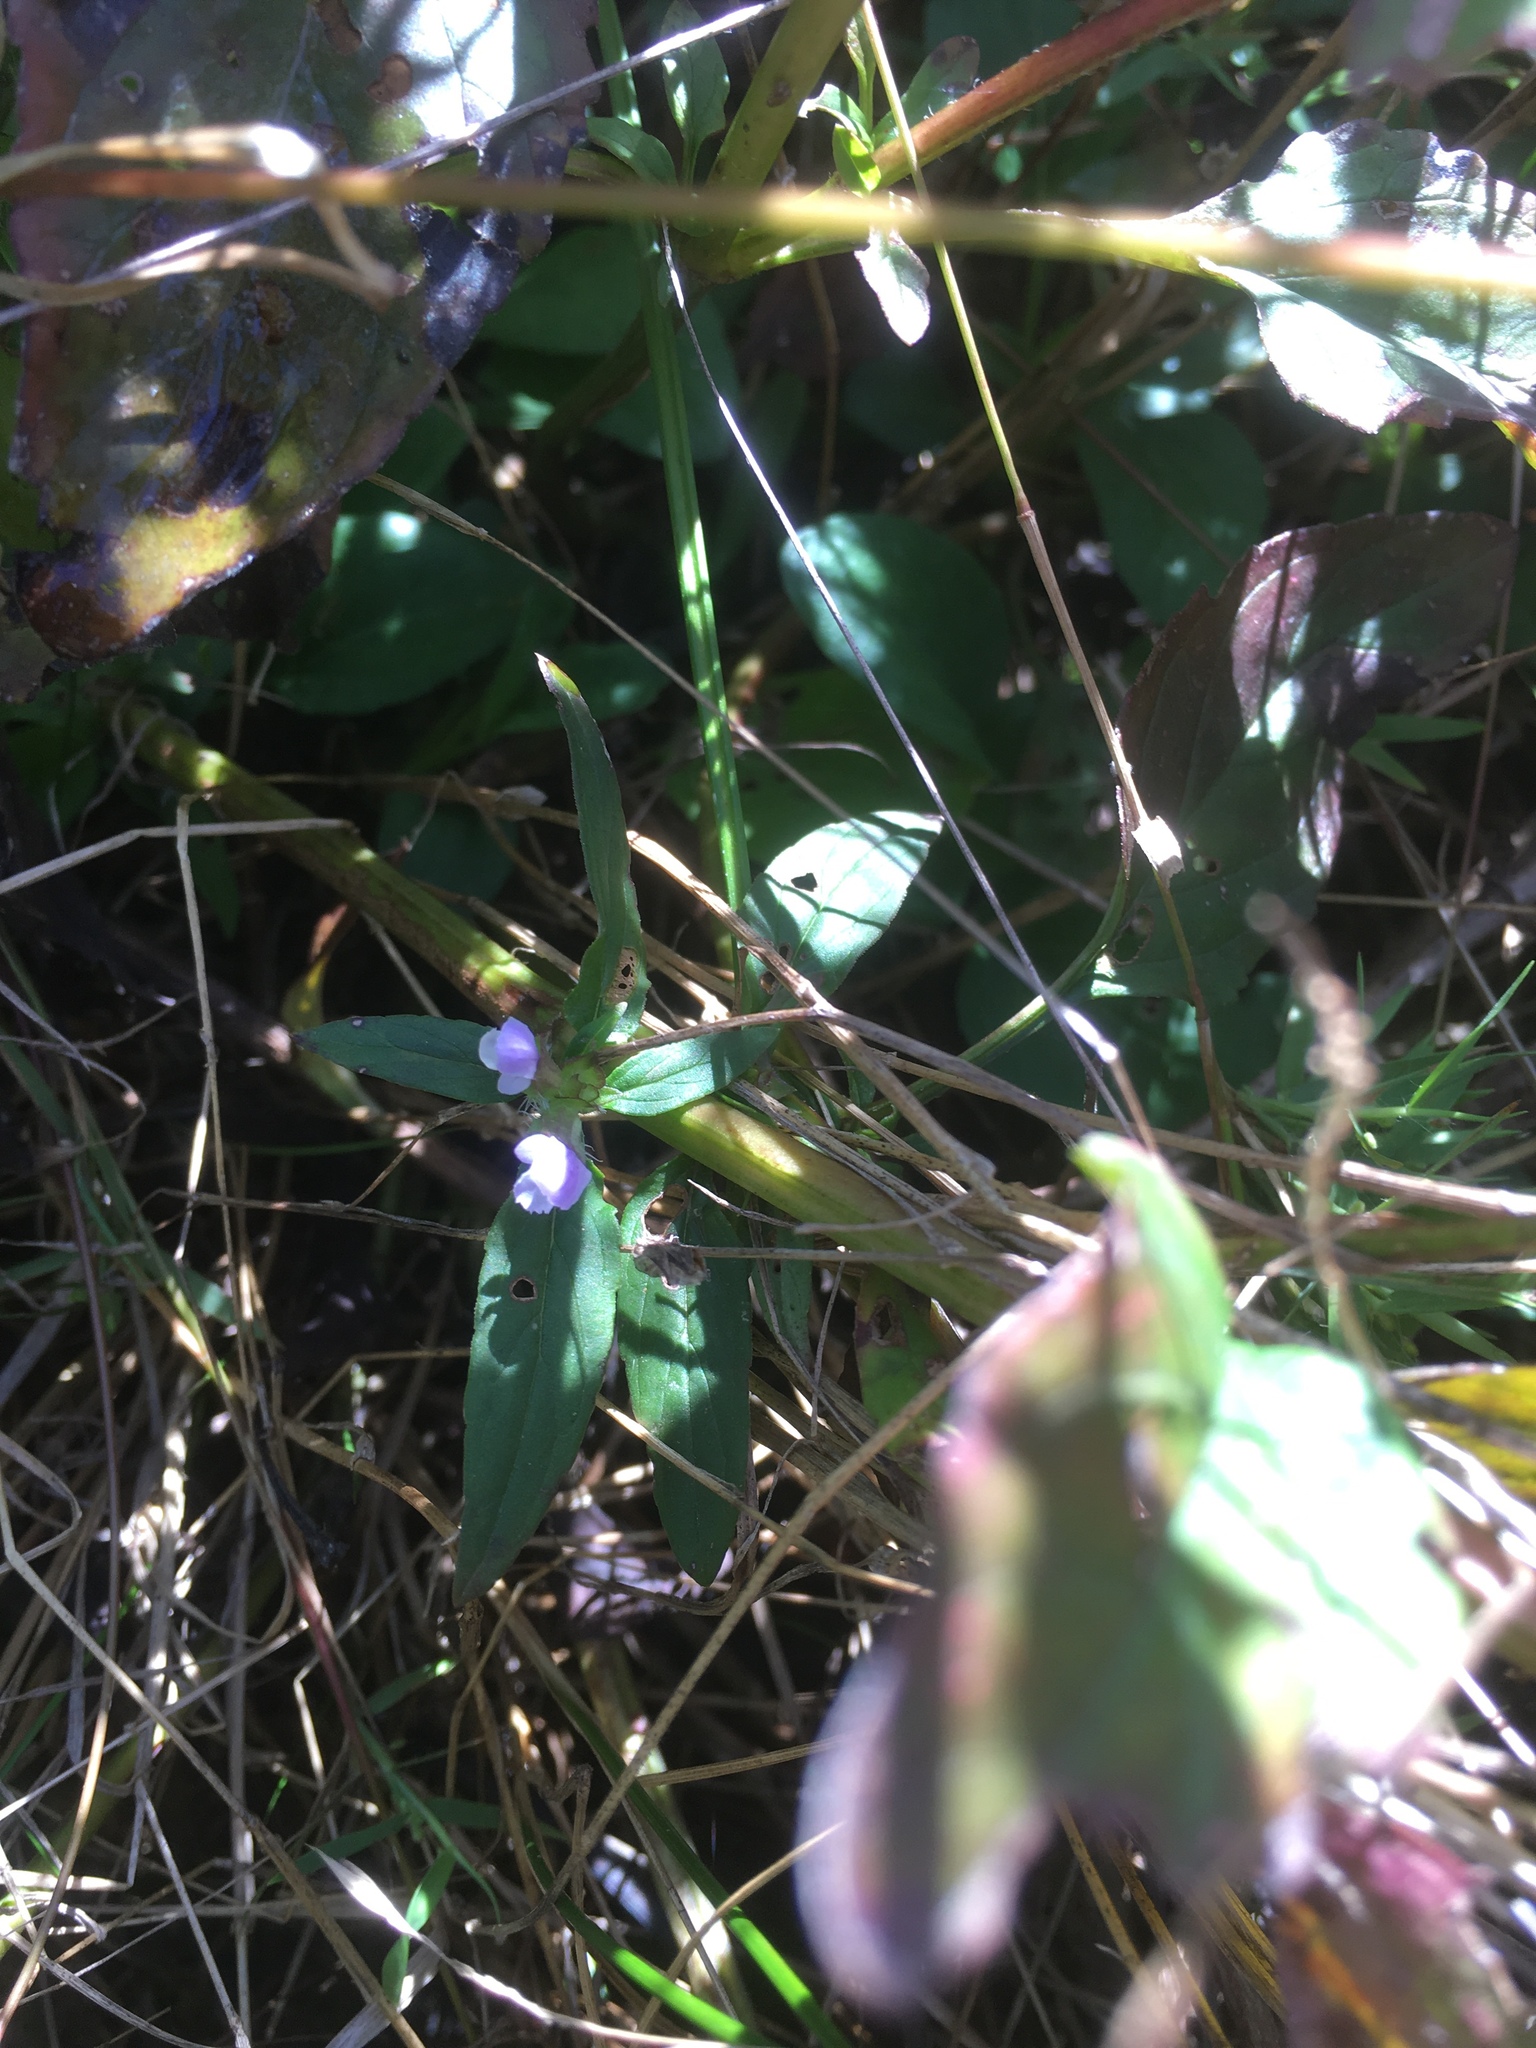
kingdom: Plantae
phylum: Tracheophyta
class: Magnoliopsida
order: Lamiales
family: Lamiaceae
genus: Prunella
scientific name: Prunella vulgaris
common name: Heal-all
